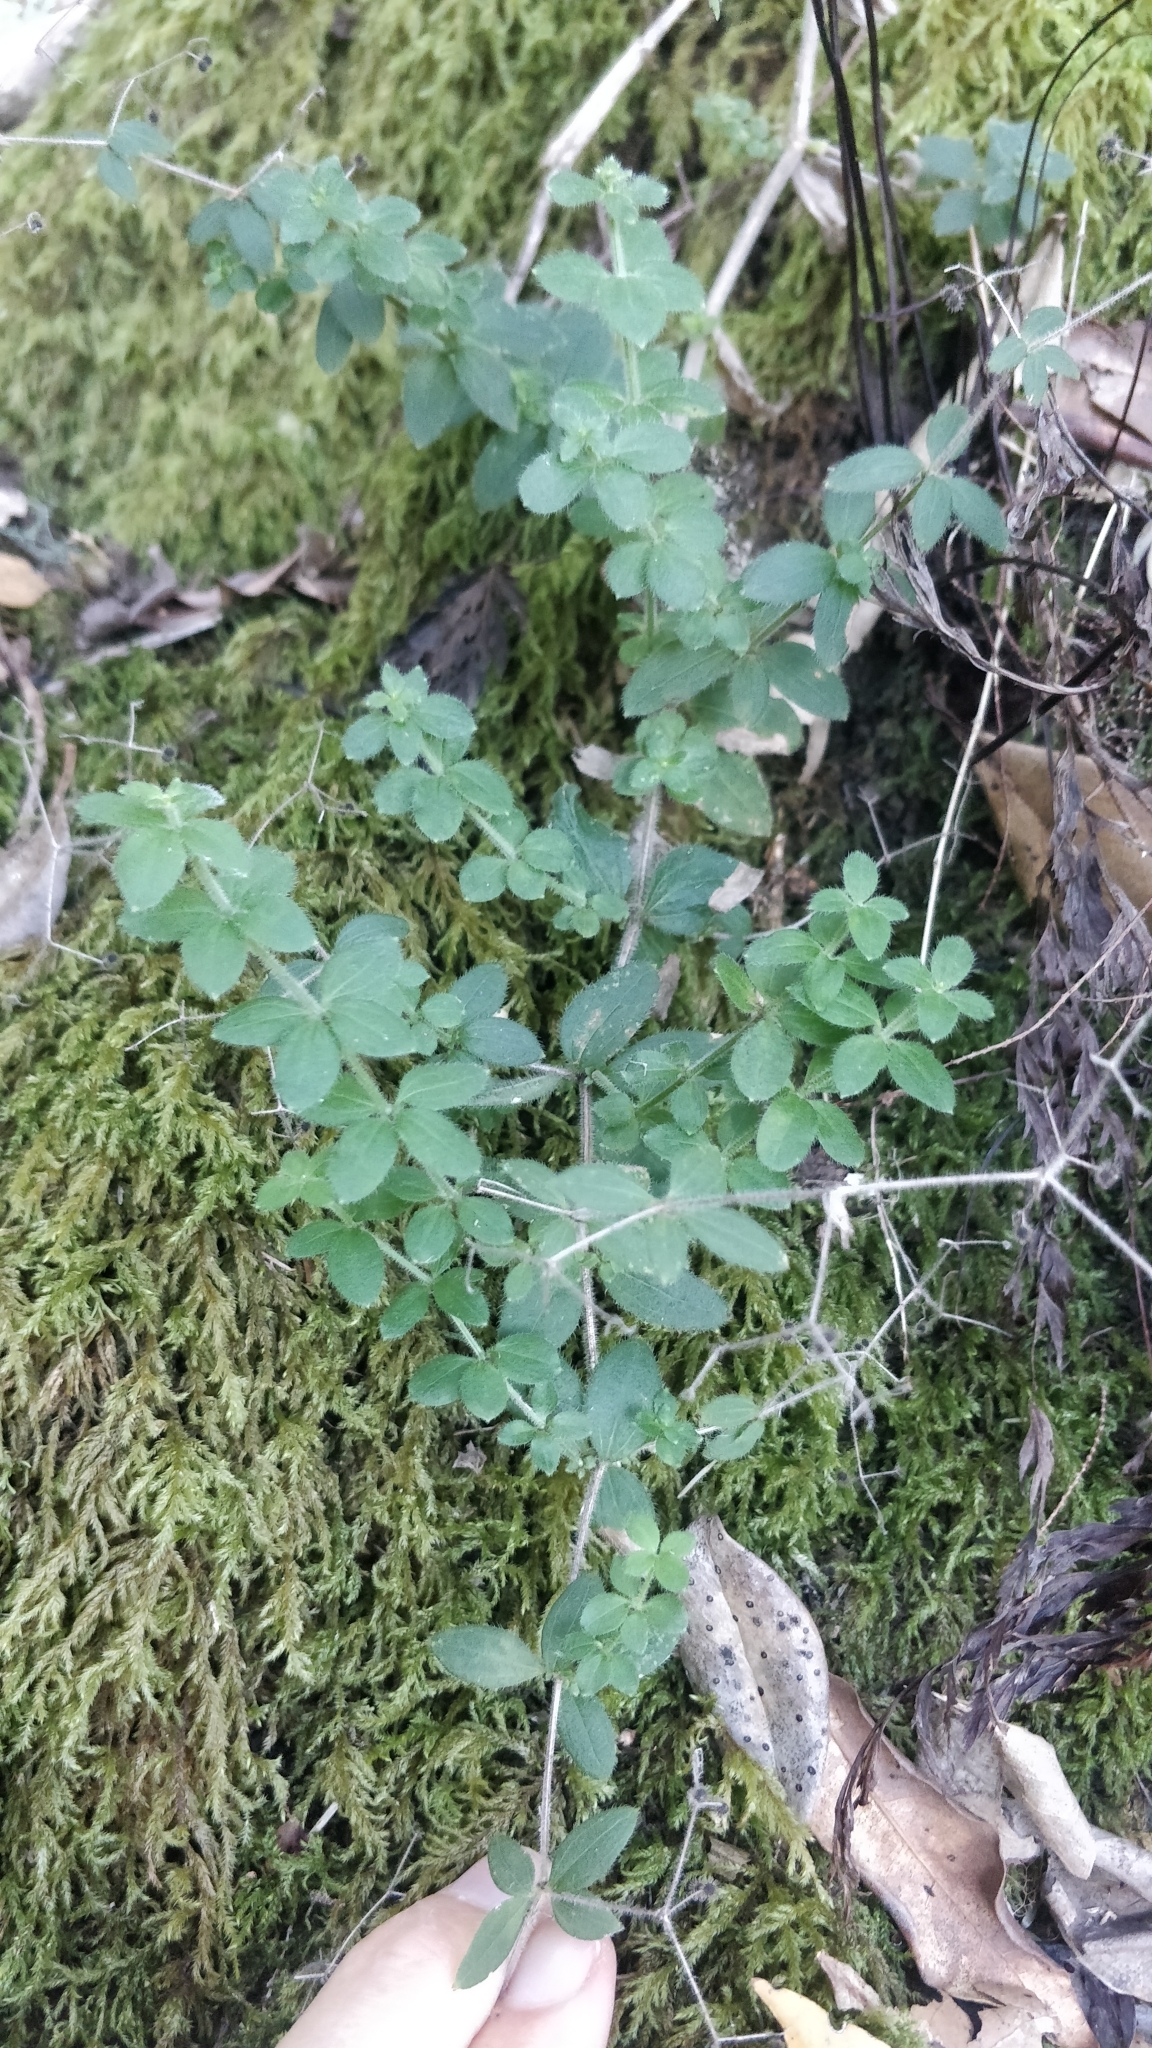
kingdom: Plantae
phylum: Tracheophyta
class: Magnoliopsida
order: Gentianales
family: Rubiaceae
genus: Galium
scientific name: Galium scabrum
